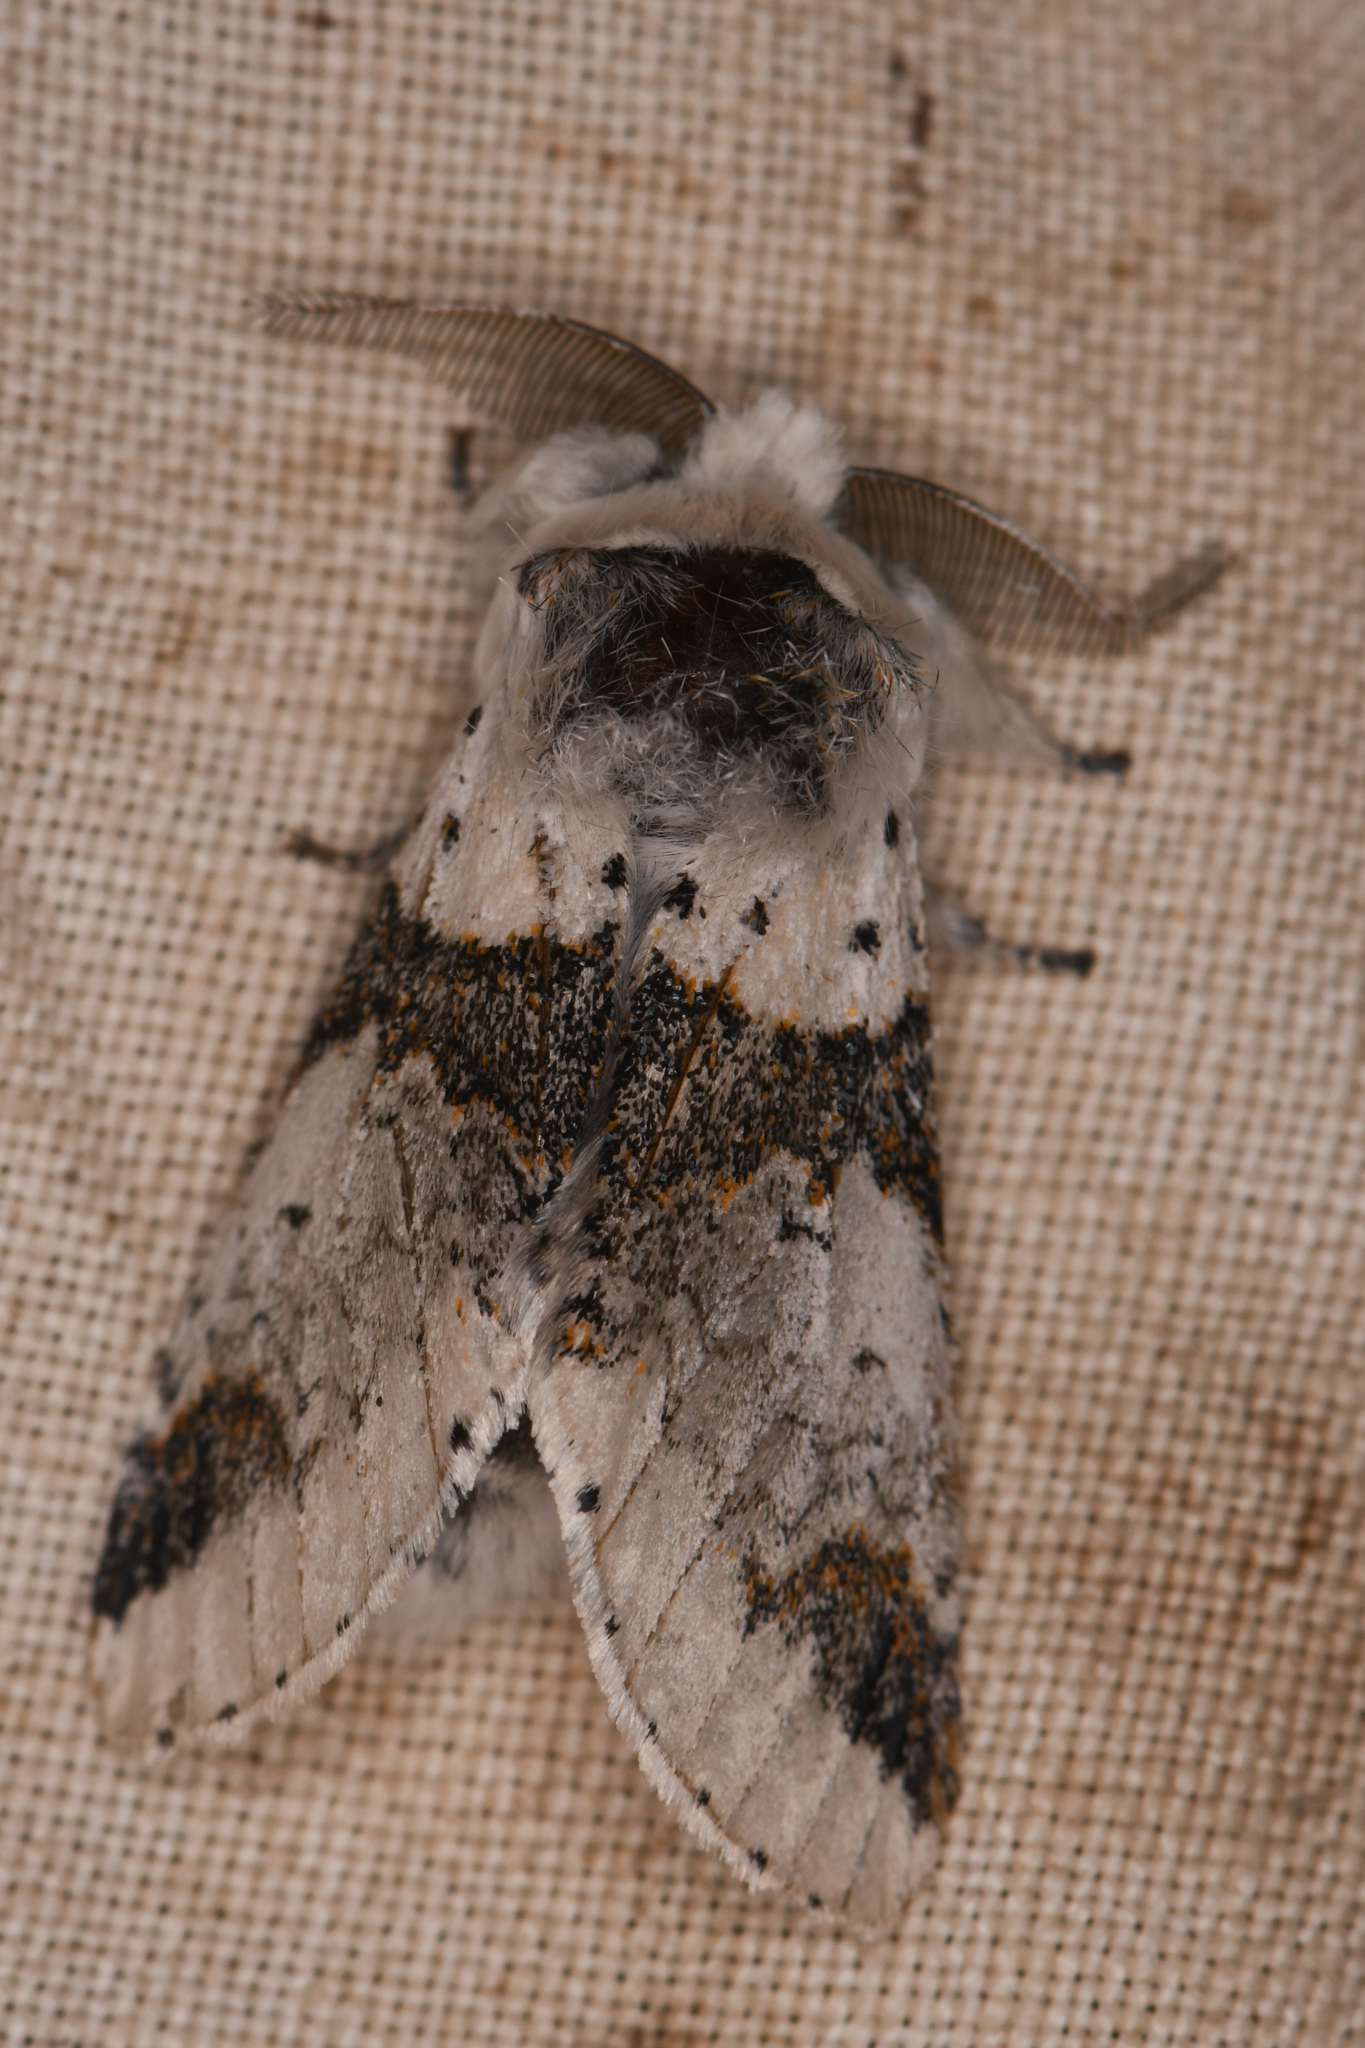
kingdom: Animalia
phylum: Arthropoda
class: Insecta
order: Lepidoptera
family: Notodontidae
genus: Furcula
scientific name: Furcula scolopendrina
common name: Zigzag furcula moth
